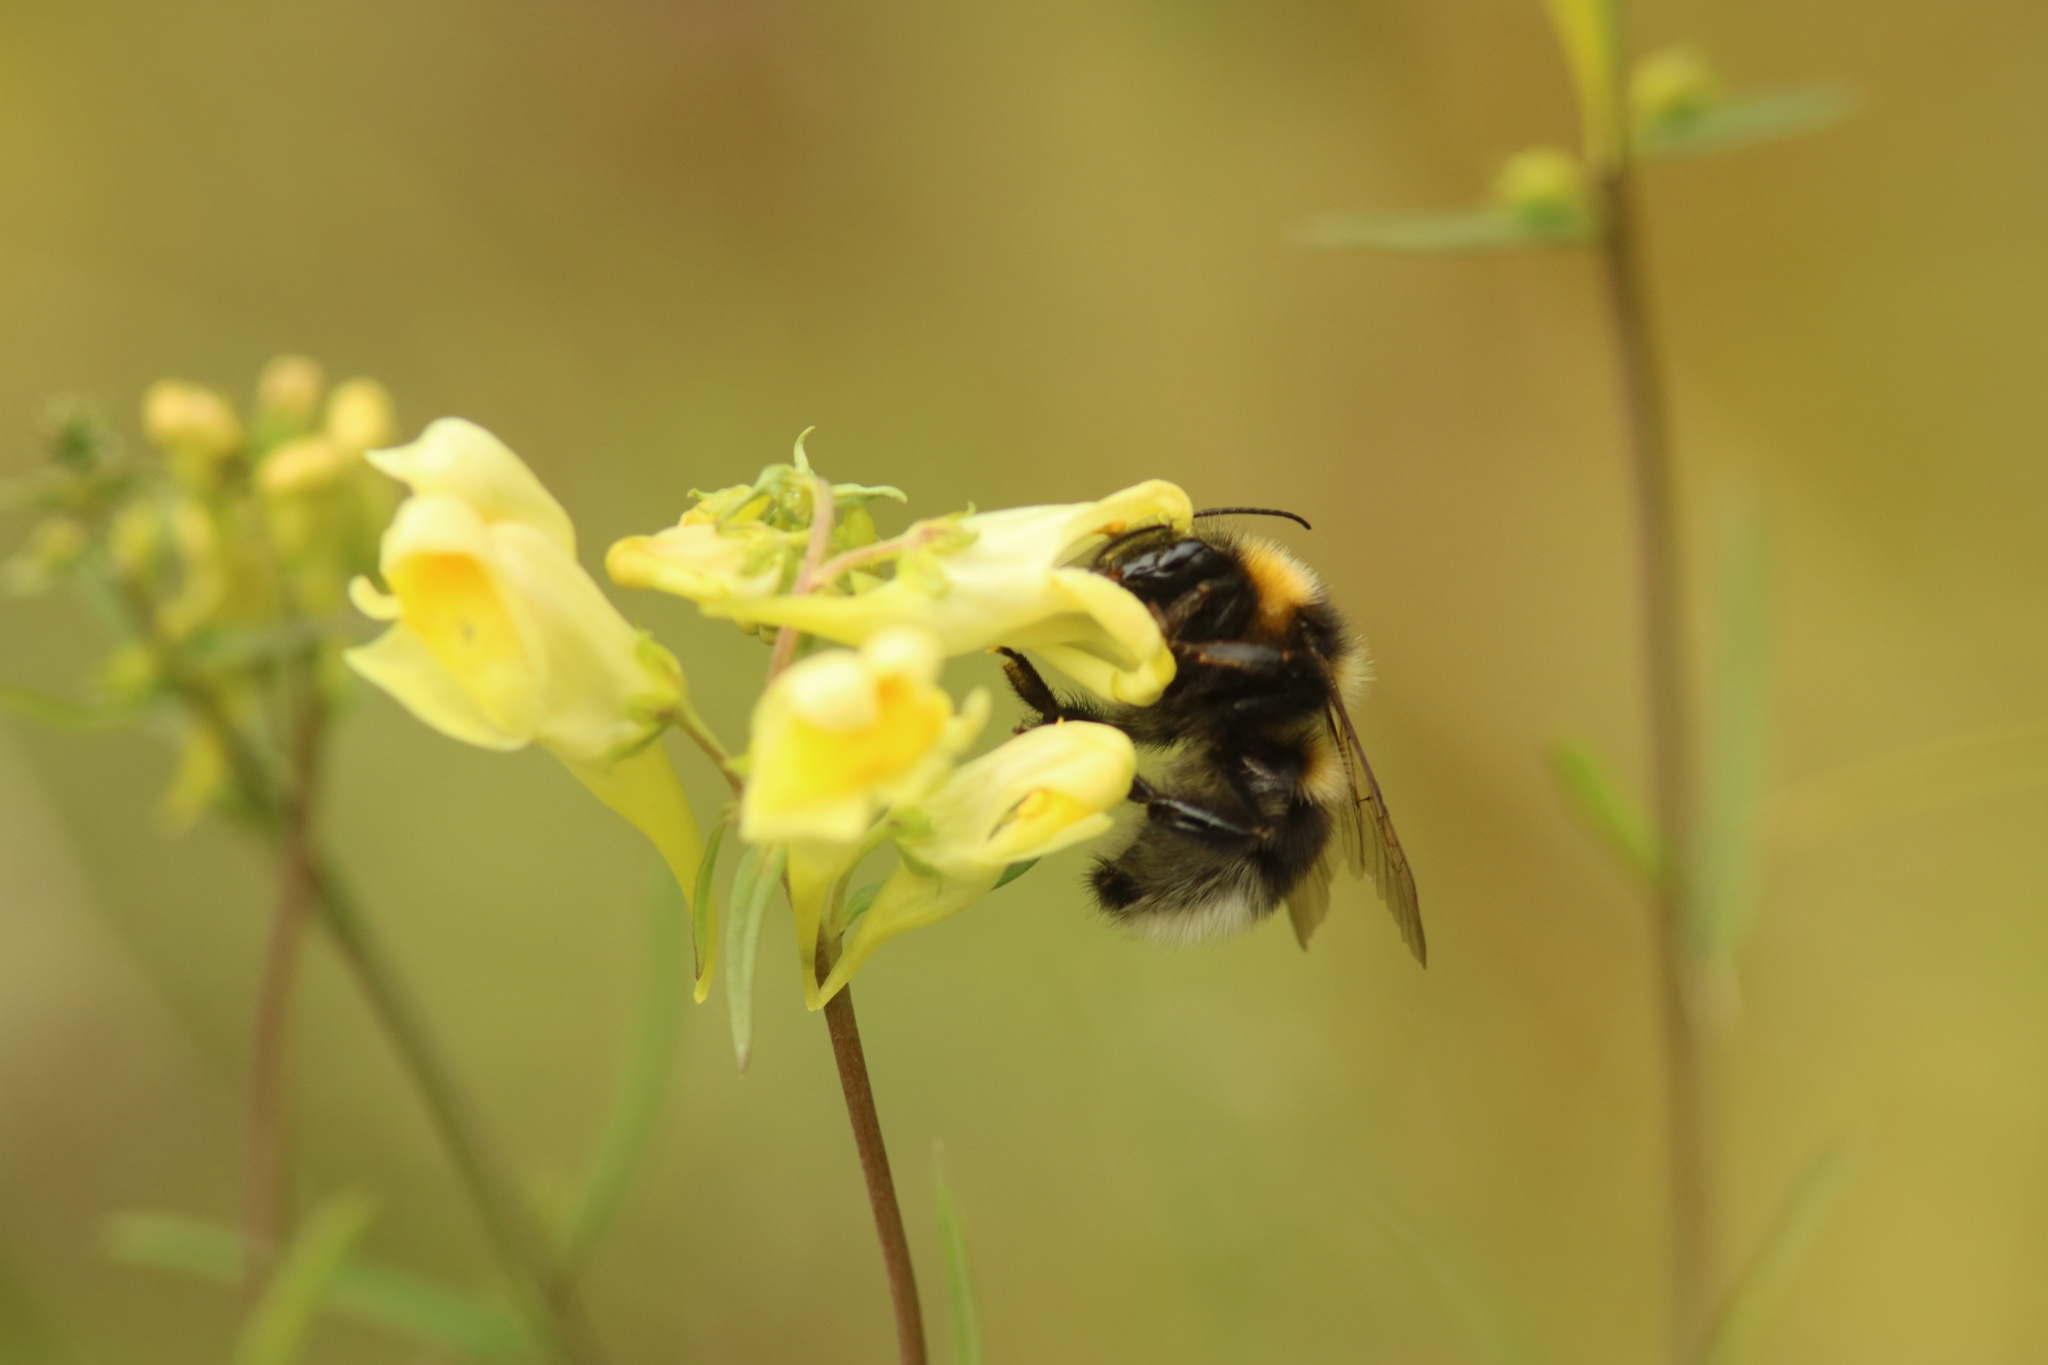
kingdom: Animalia
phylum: Arthropoda
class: Insecta
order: Hymenoptera
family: Apidae
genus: Bombus
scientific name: Bombus hortorum
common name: Garden bumblebee
